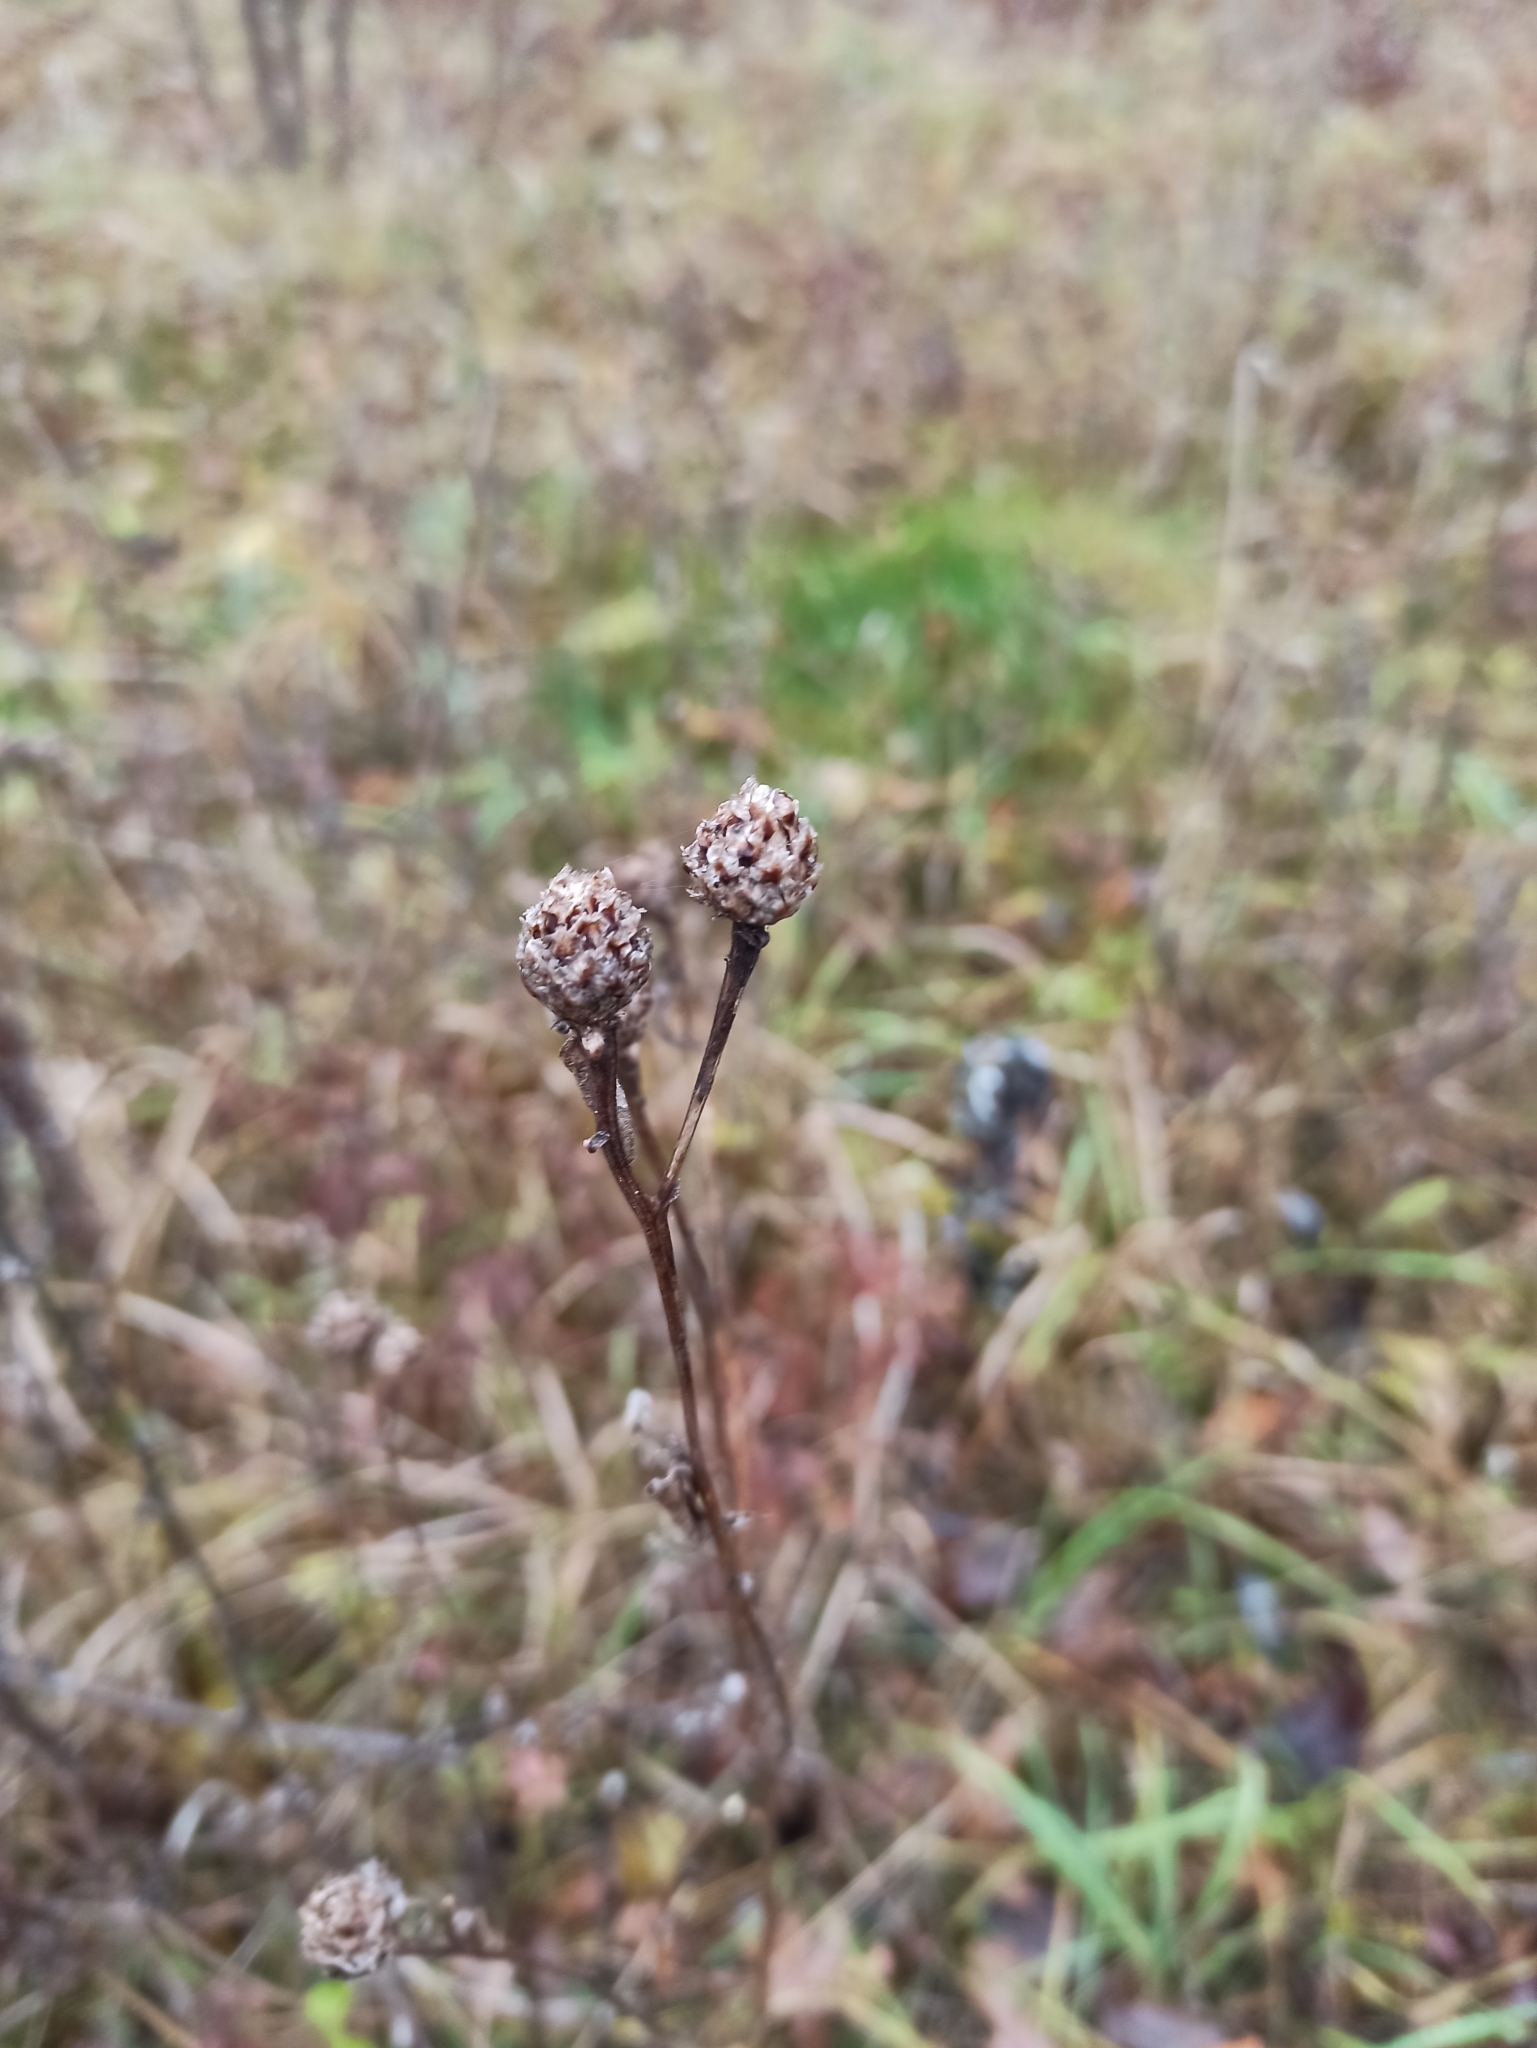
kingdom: Plantae
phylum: Tracheophyta
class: Magnoliopsida
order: Asterales
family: Asteraceae
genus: Centaurea
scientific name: Centaurea jacea
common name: Brown knapweed
